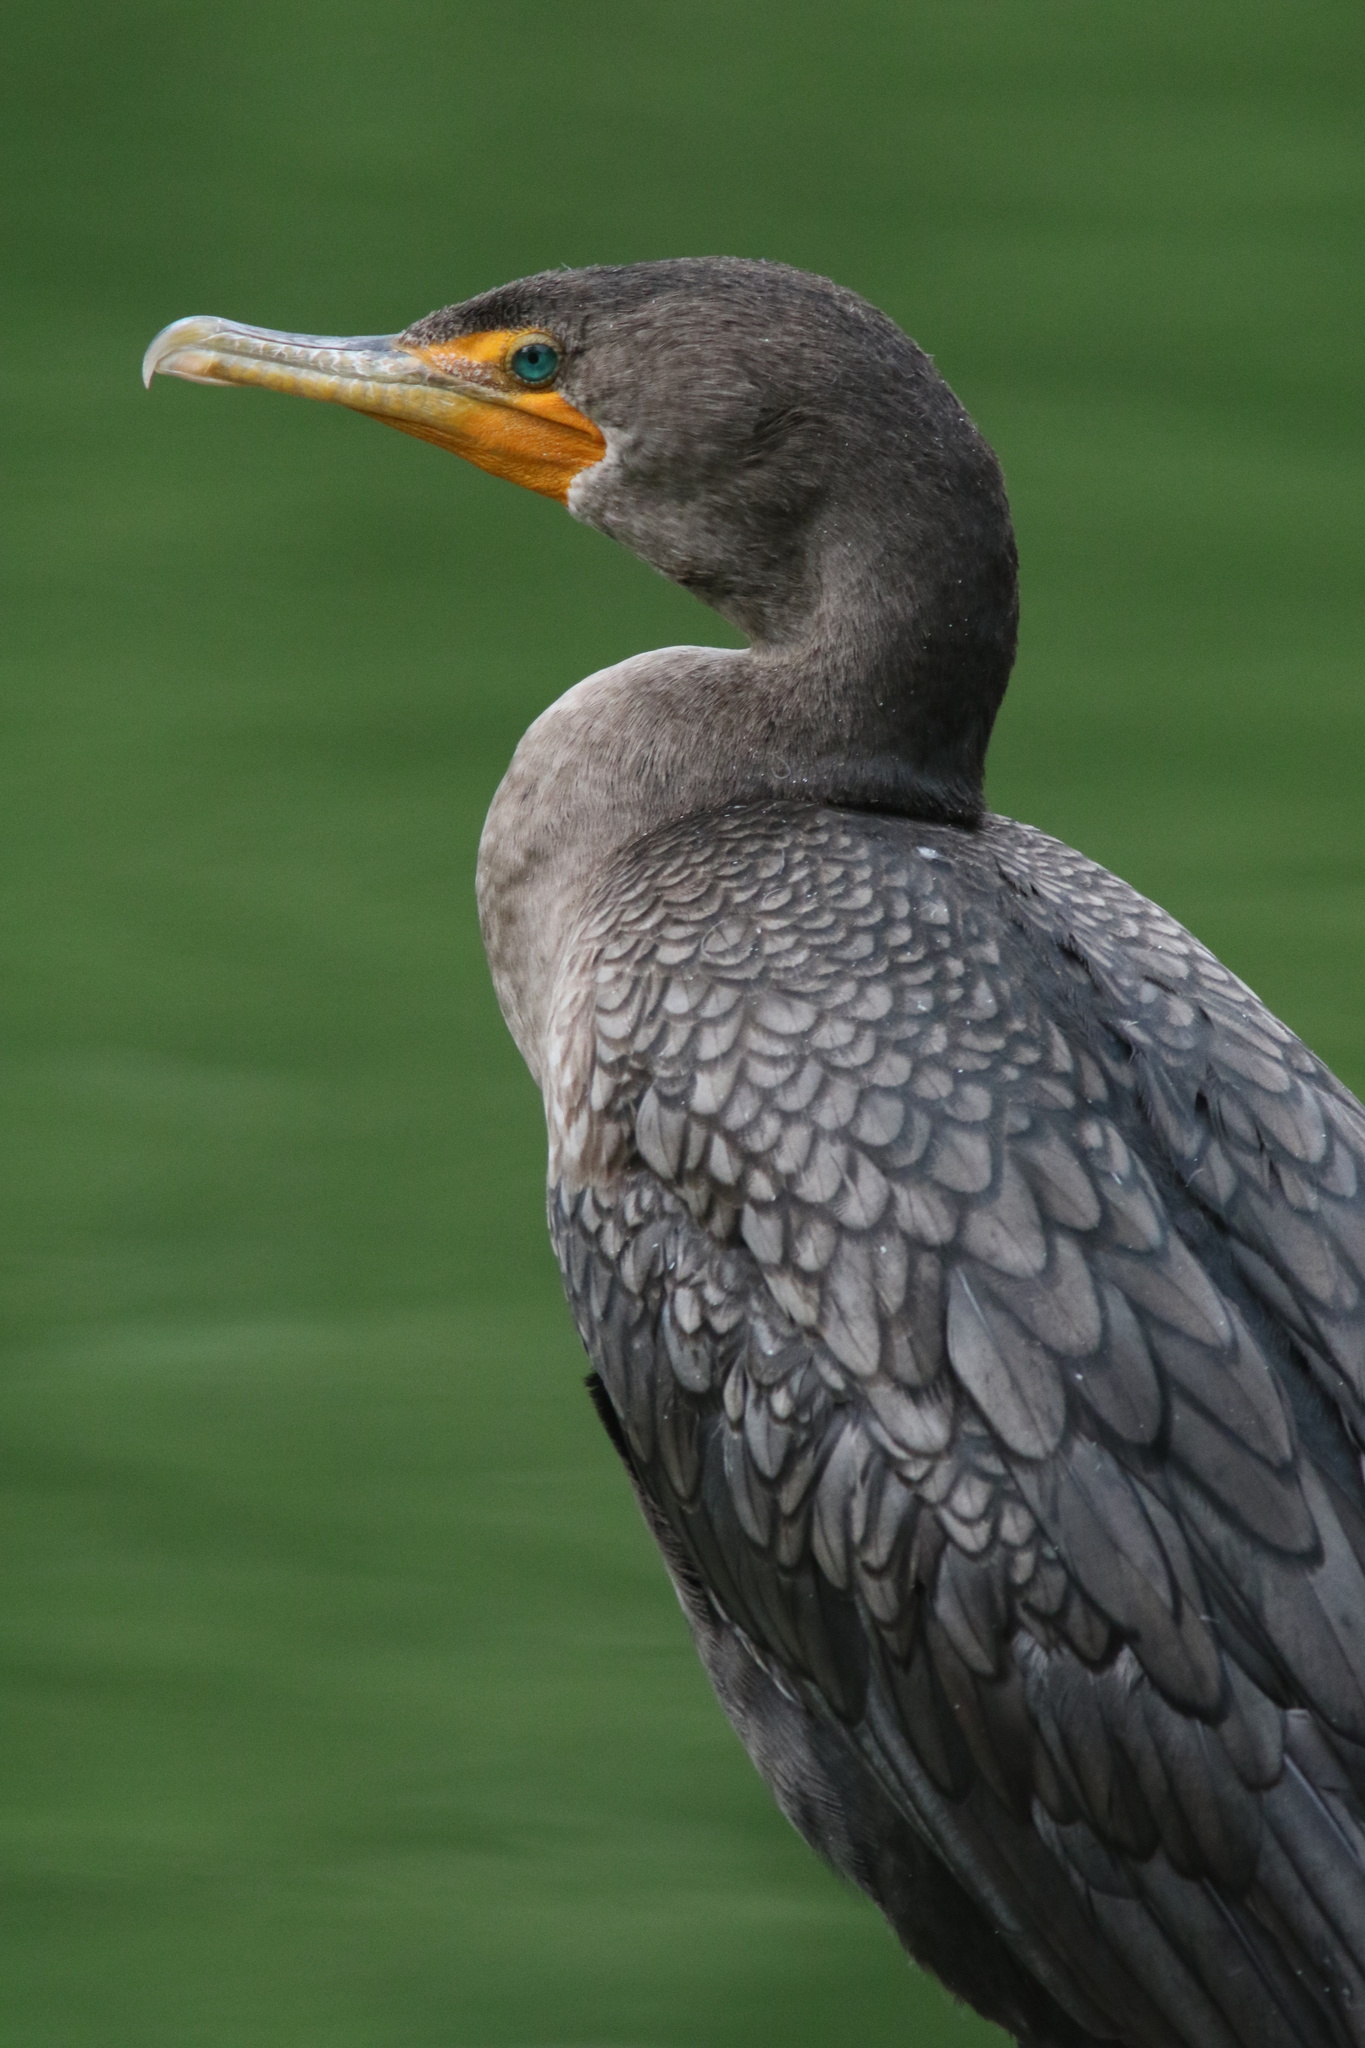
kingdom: Animalia
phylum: Chordata
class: Aves
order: Suliformes
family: Phalacrocoracidae
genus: Phalacrocorax
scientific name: Phalacrocorax auritus
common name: Double-crested cormorant
